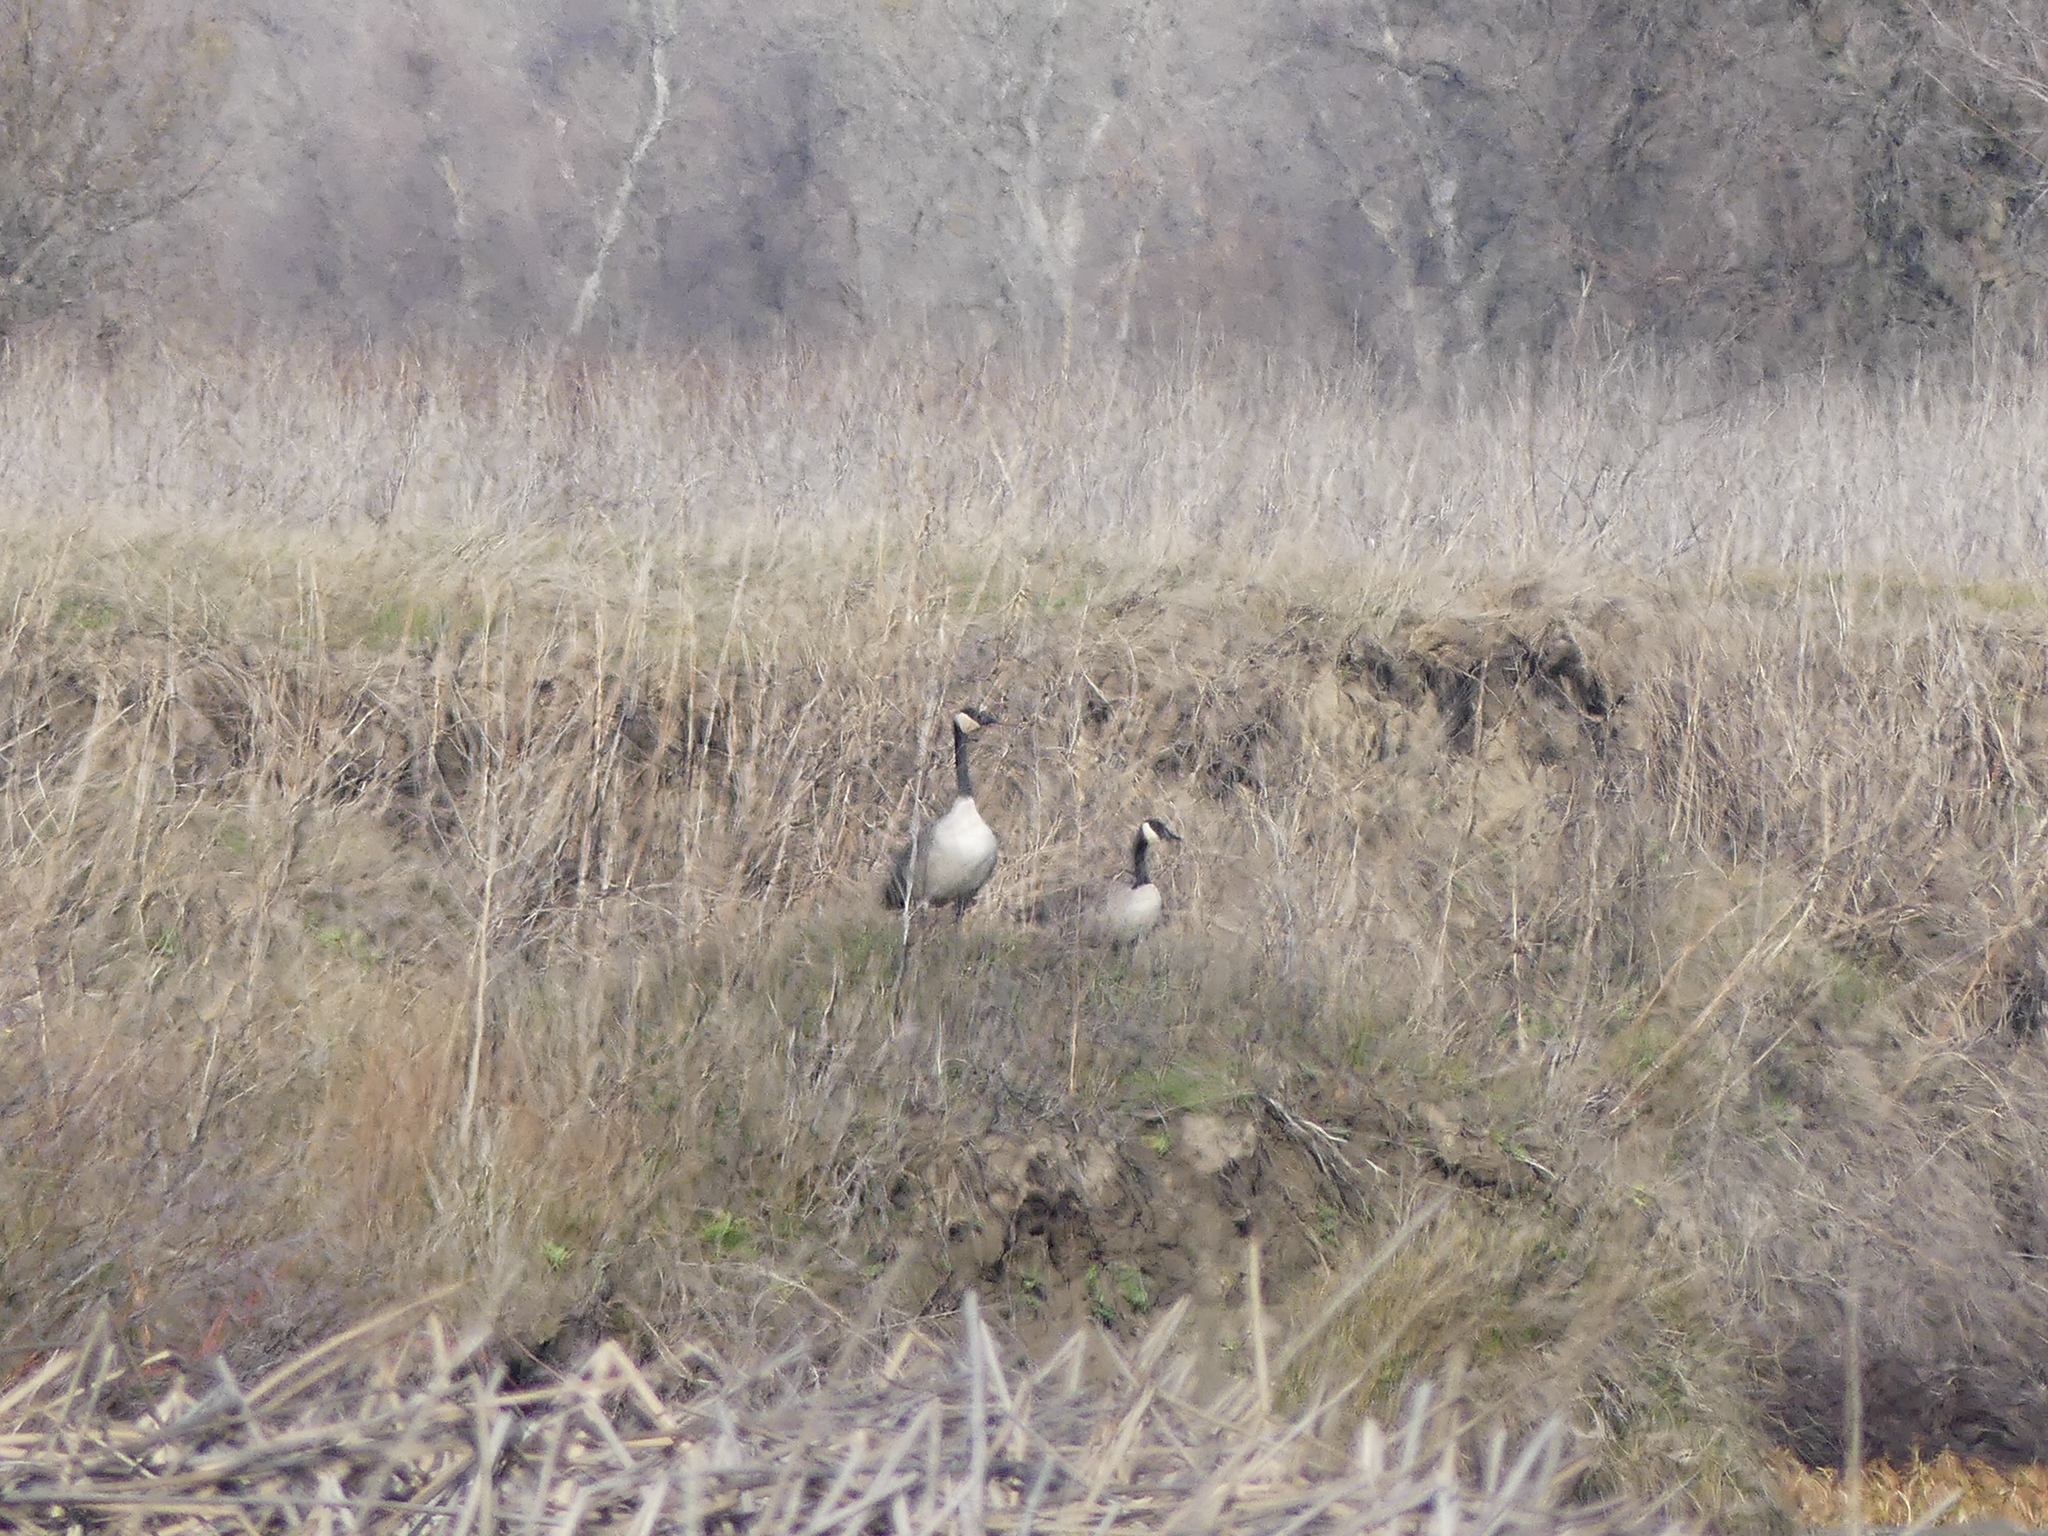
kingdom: Animalia
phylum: Chordata
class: Aves
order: Anseriformes
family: Anatidae
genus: Branta
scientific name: Branta canadensis
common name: Canada goose
